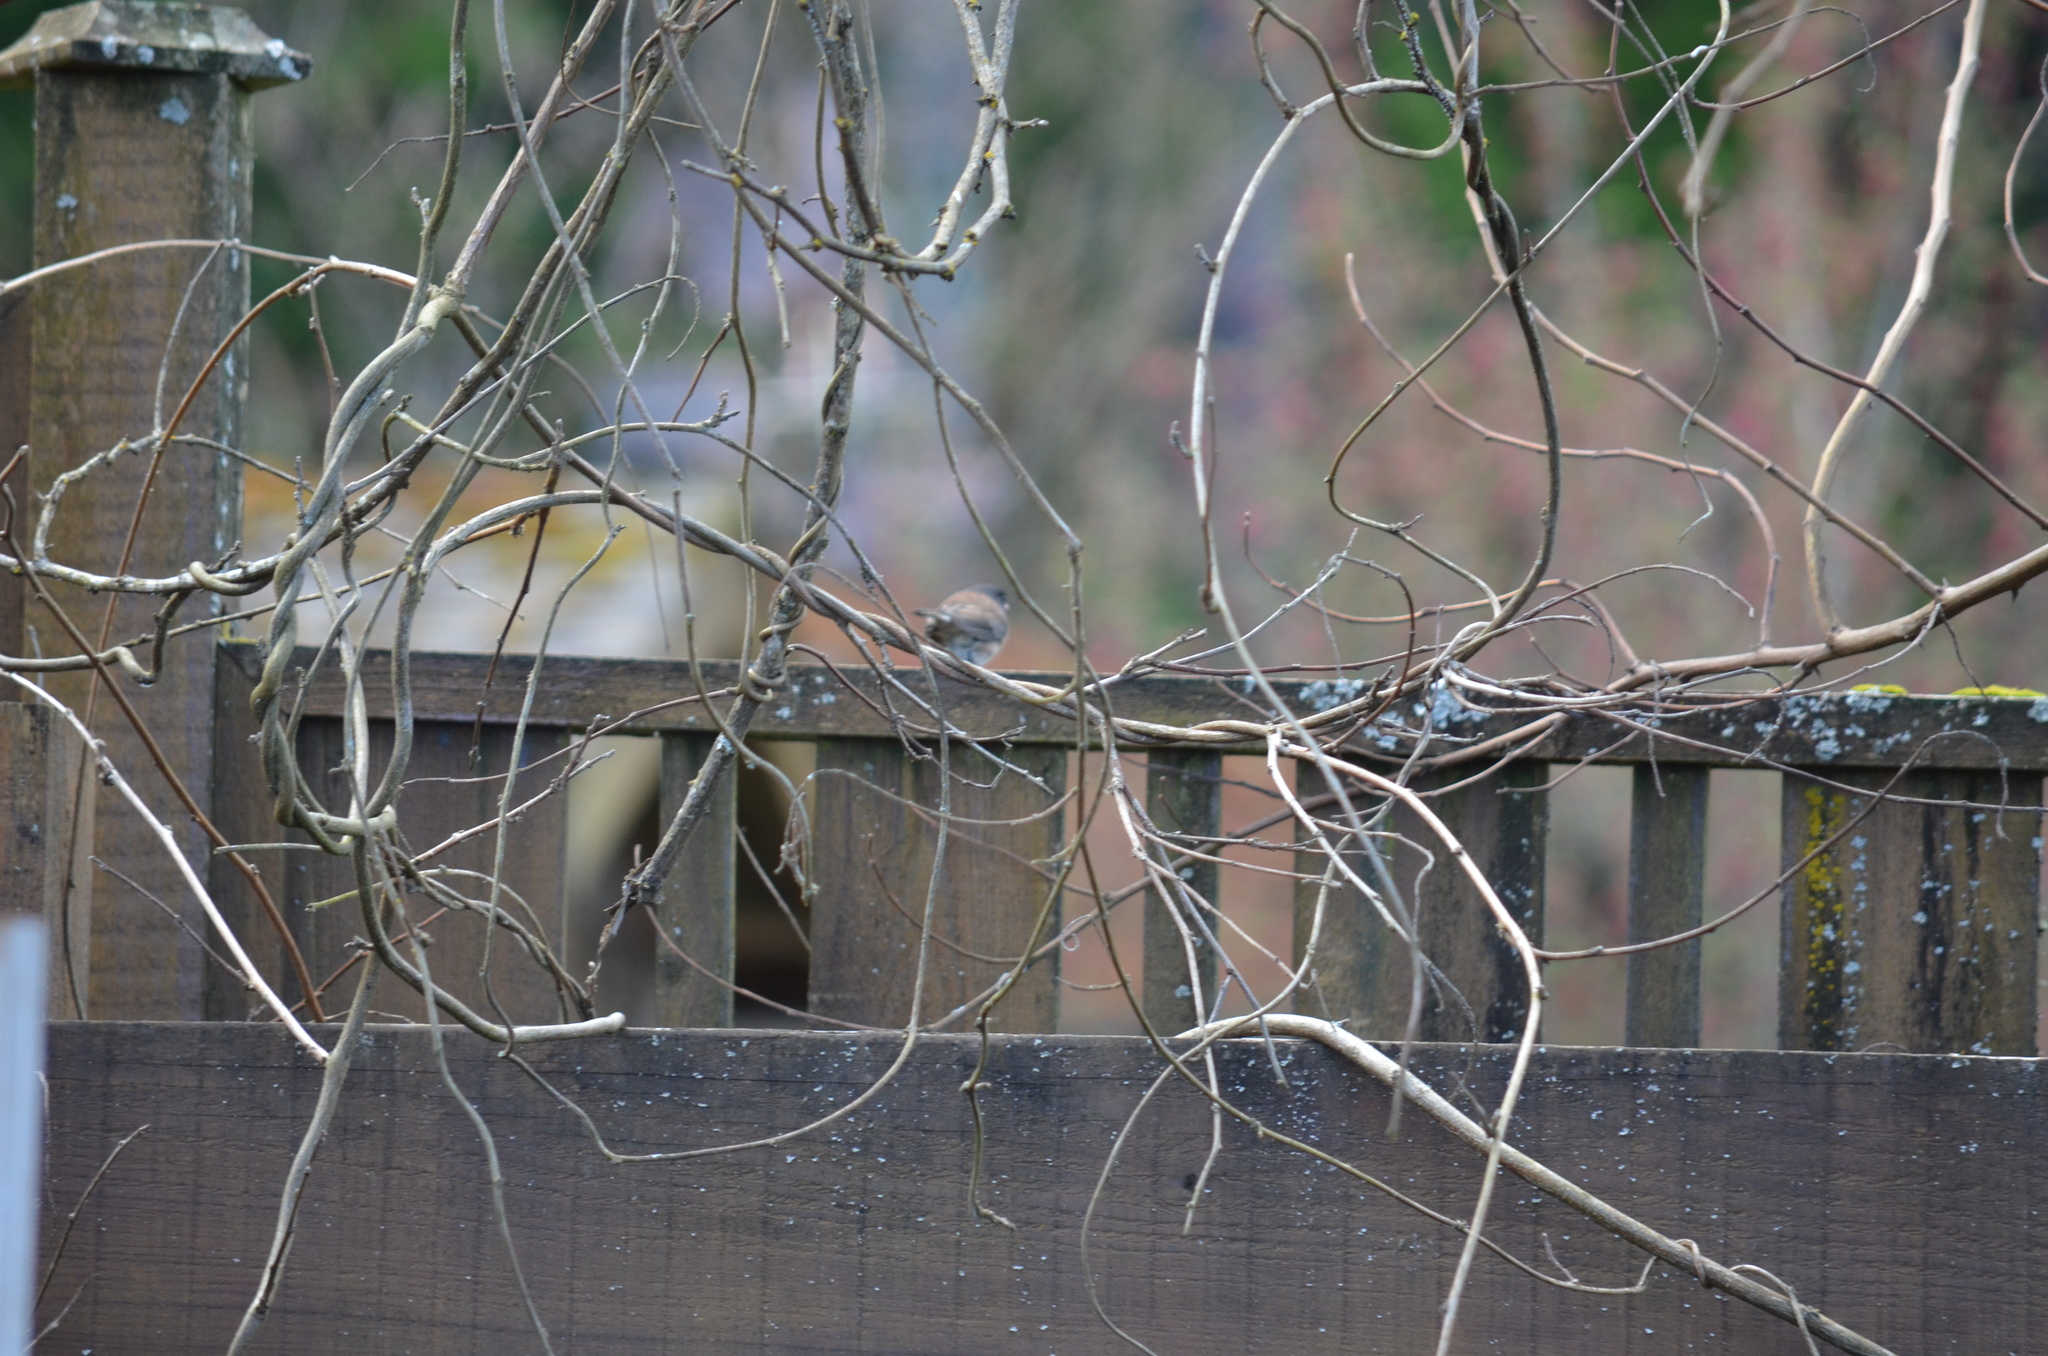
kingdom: Animalia
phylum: Chordata
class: Aves
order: Passeriformes
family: Passerellidae
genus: Junco
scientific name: Junco hyemalis
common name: Dark-eyed junco
